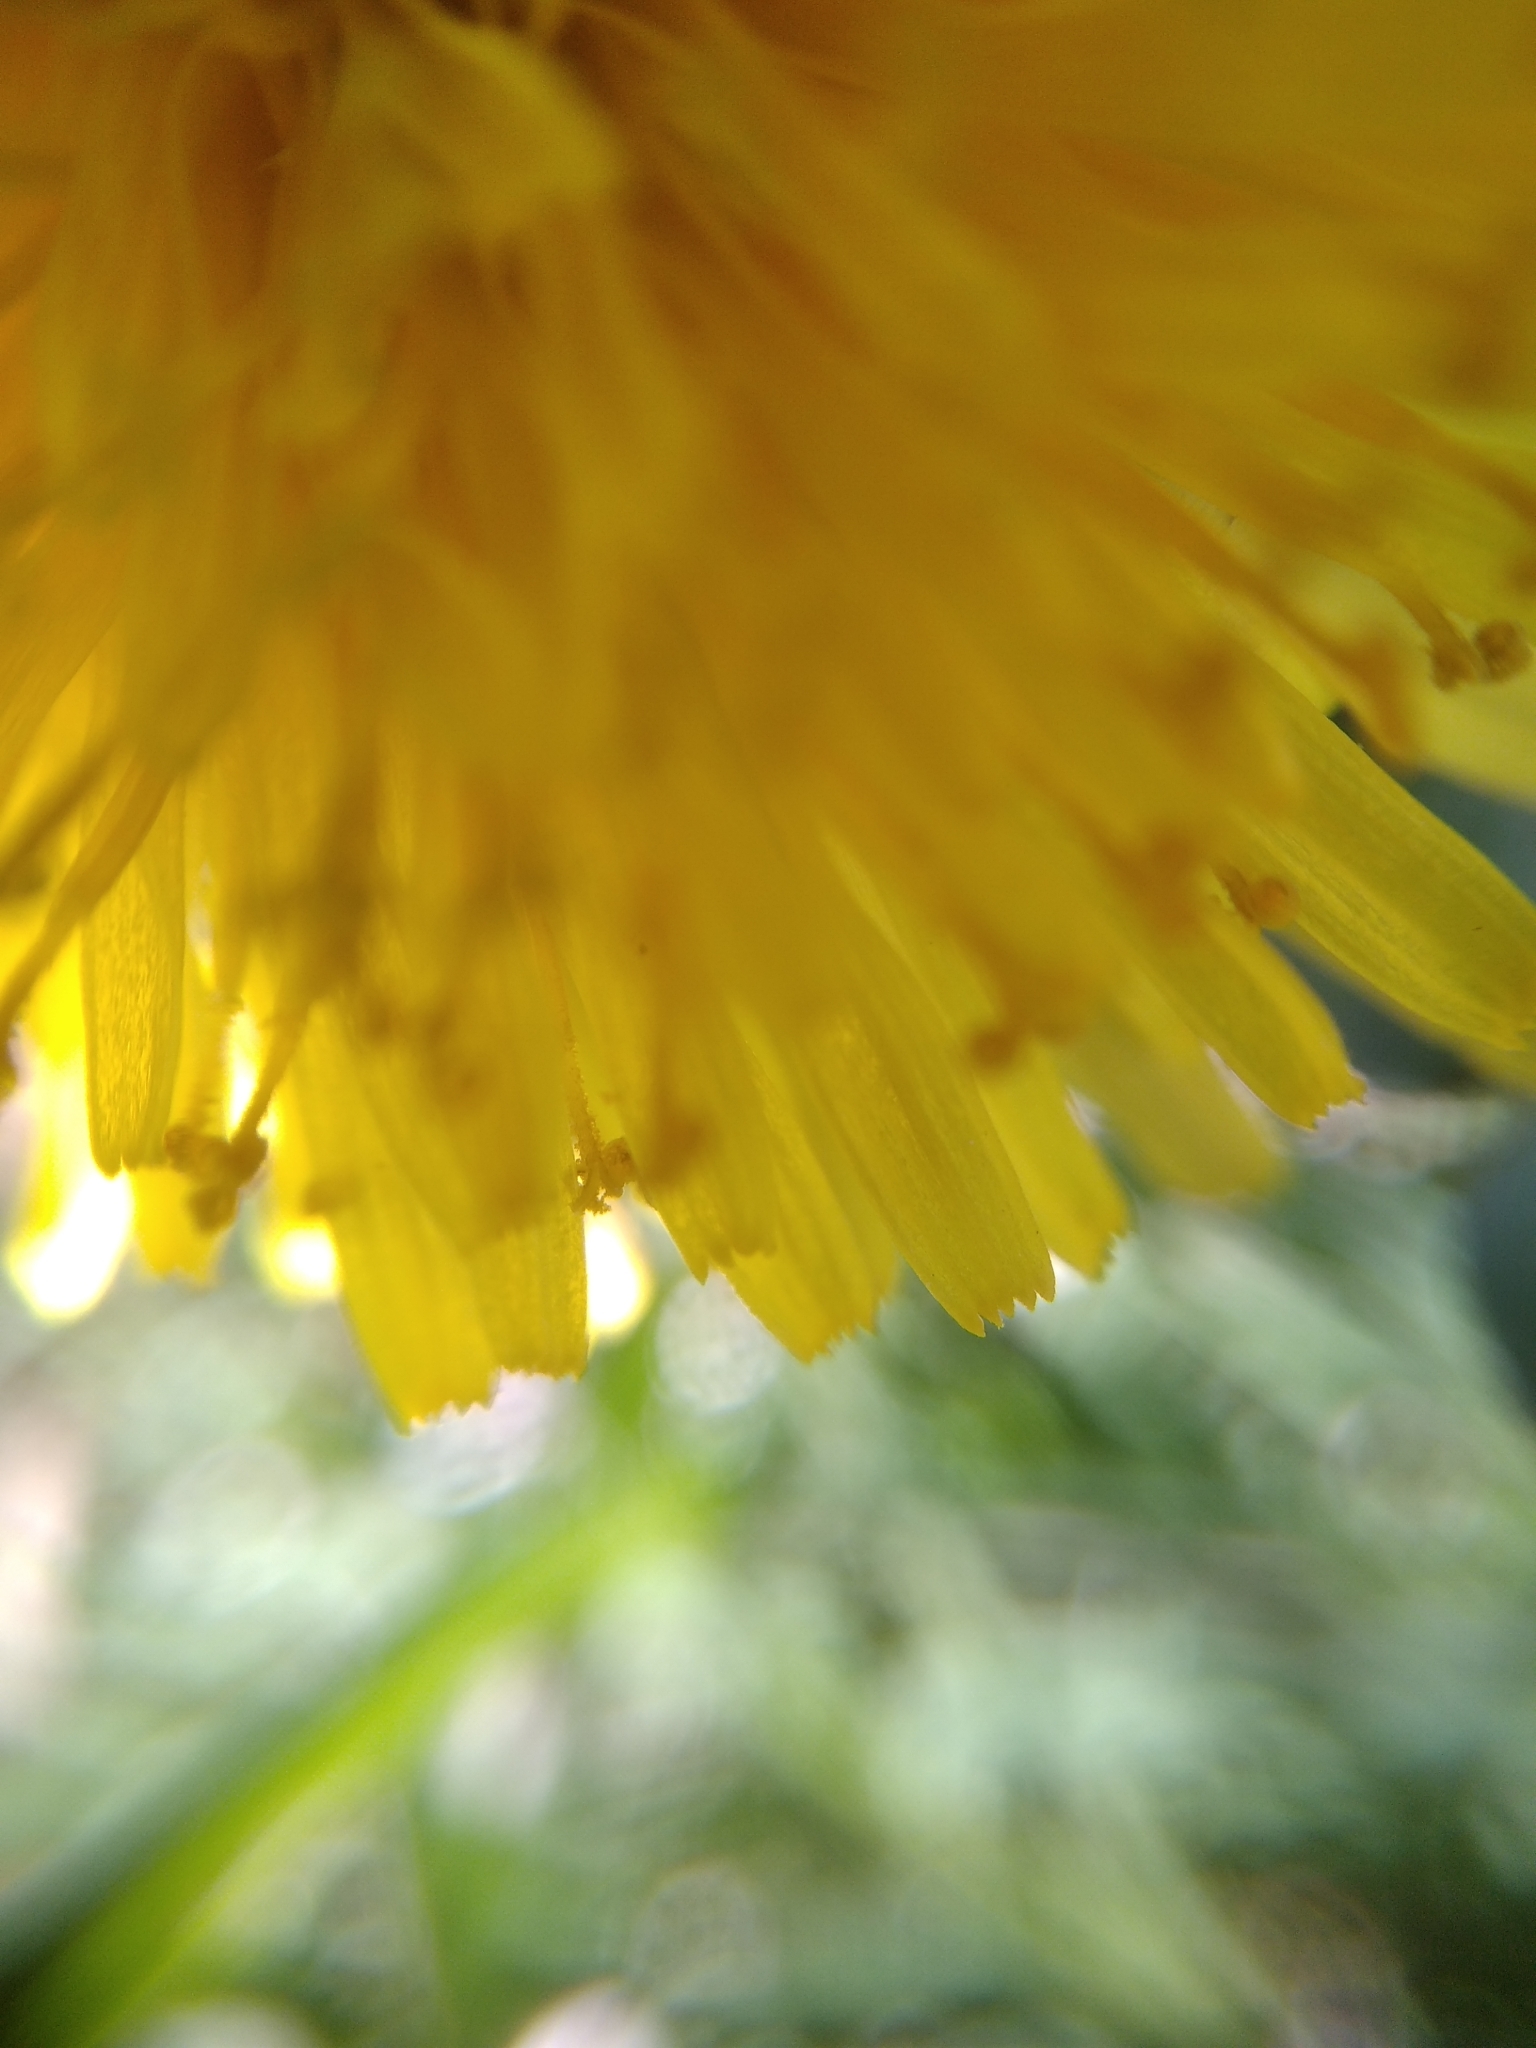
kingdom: Plantae
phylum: Tracheophyta
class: Magnoliopsida
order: Asterales
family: Asteraceae
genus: Taraxacum
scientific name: Taraxacum
